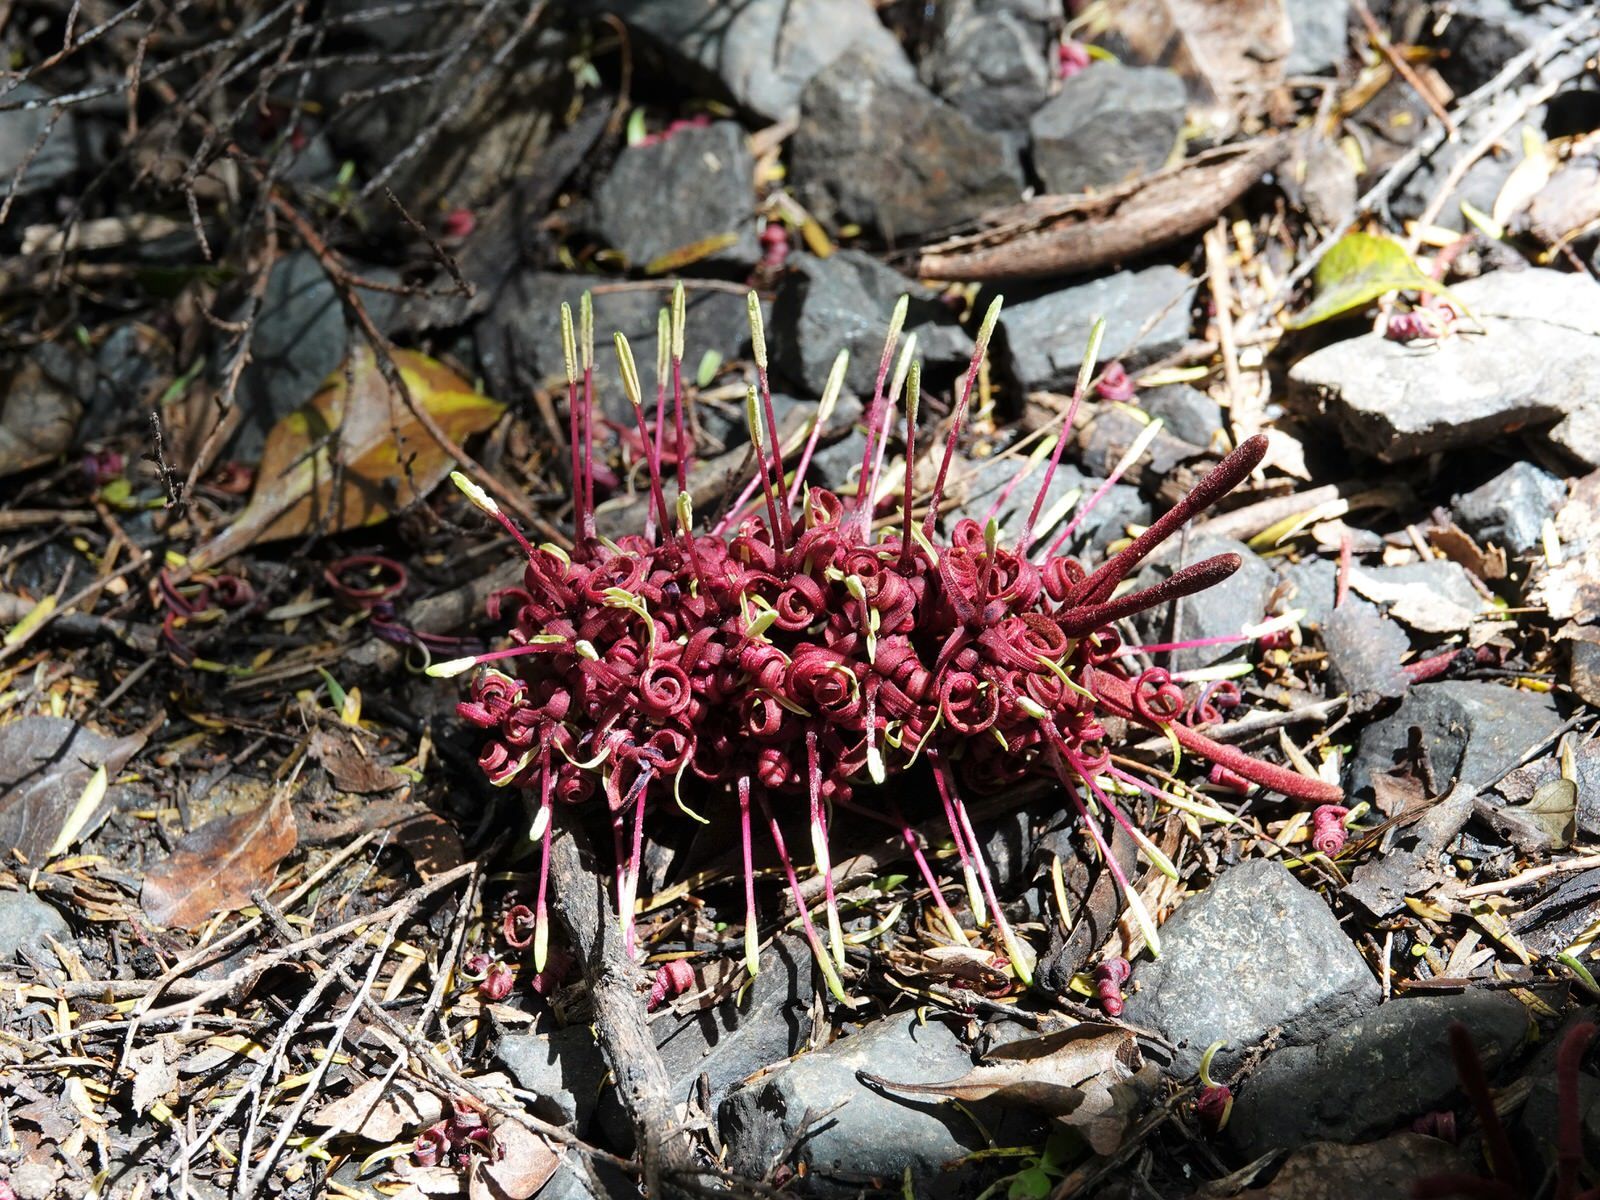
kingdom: Plantae
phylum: Tracheophyta
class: Magnoliopsida
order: Proteales
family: Proteaceae
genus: Knightia
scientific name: Knightia excelsa
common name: New zealand-honeysuckle
